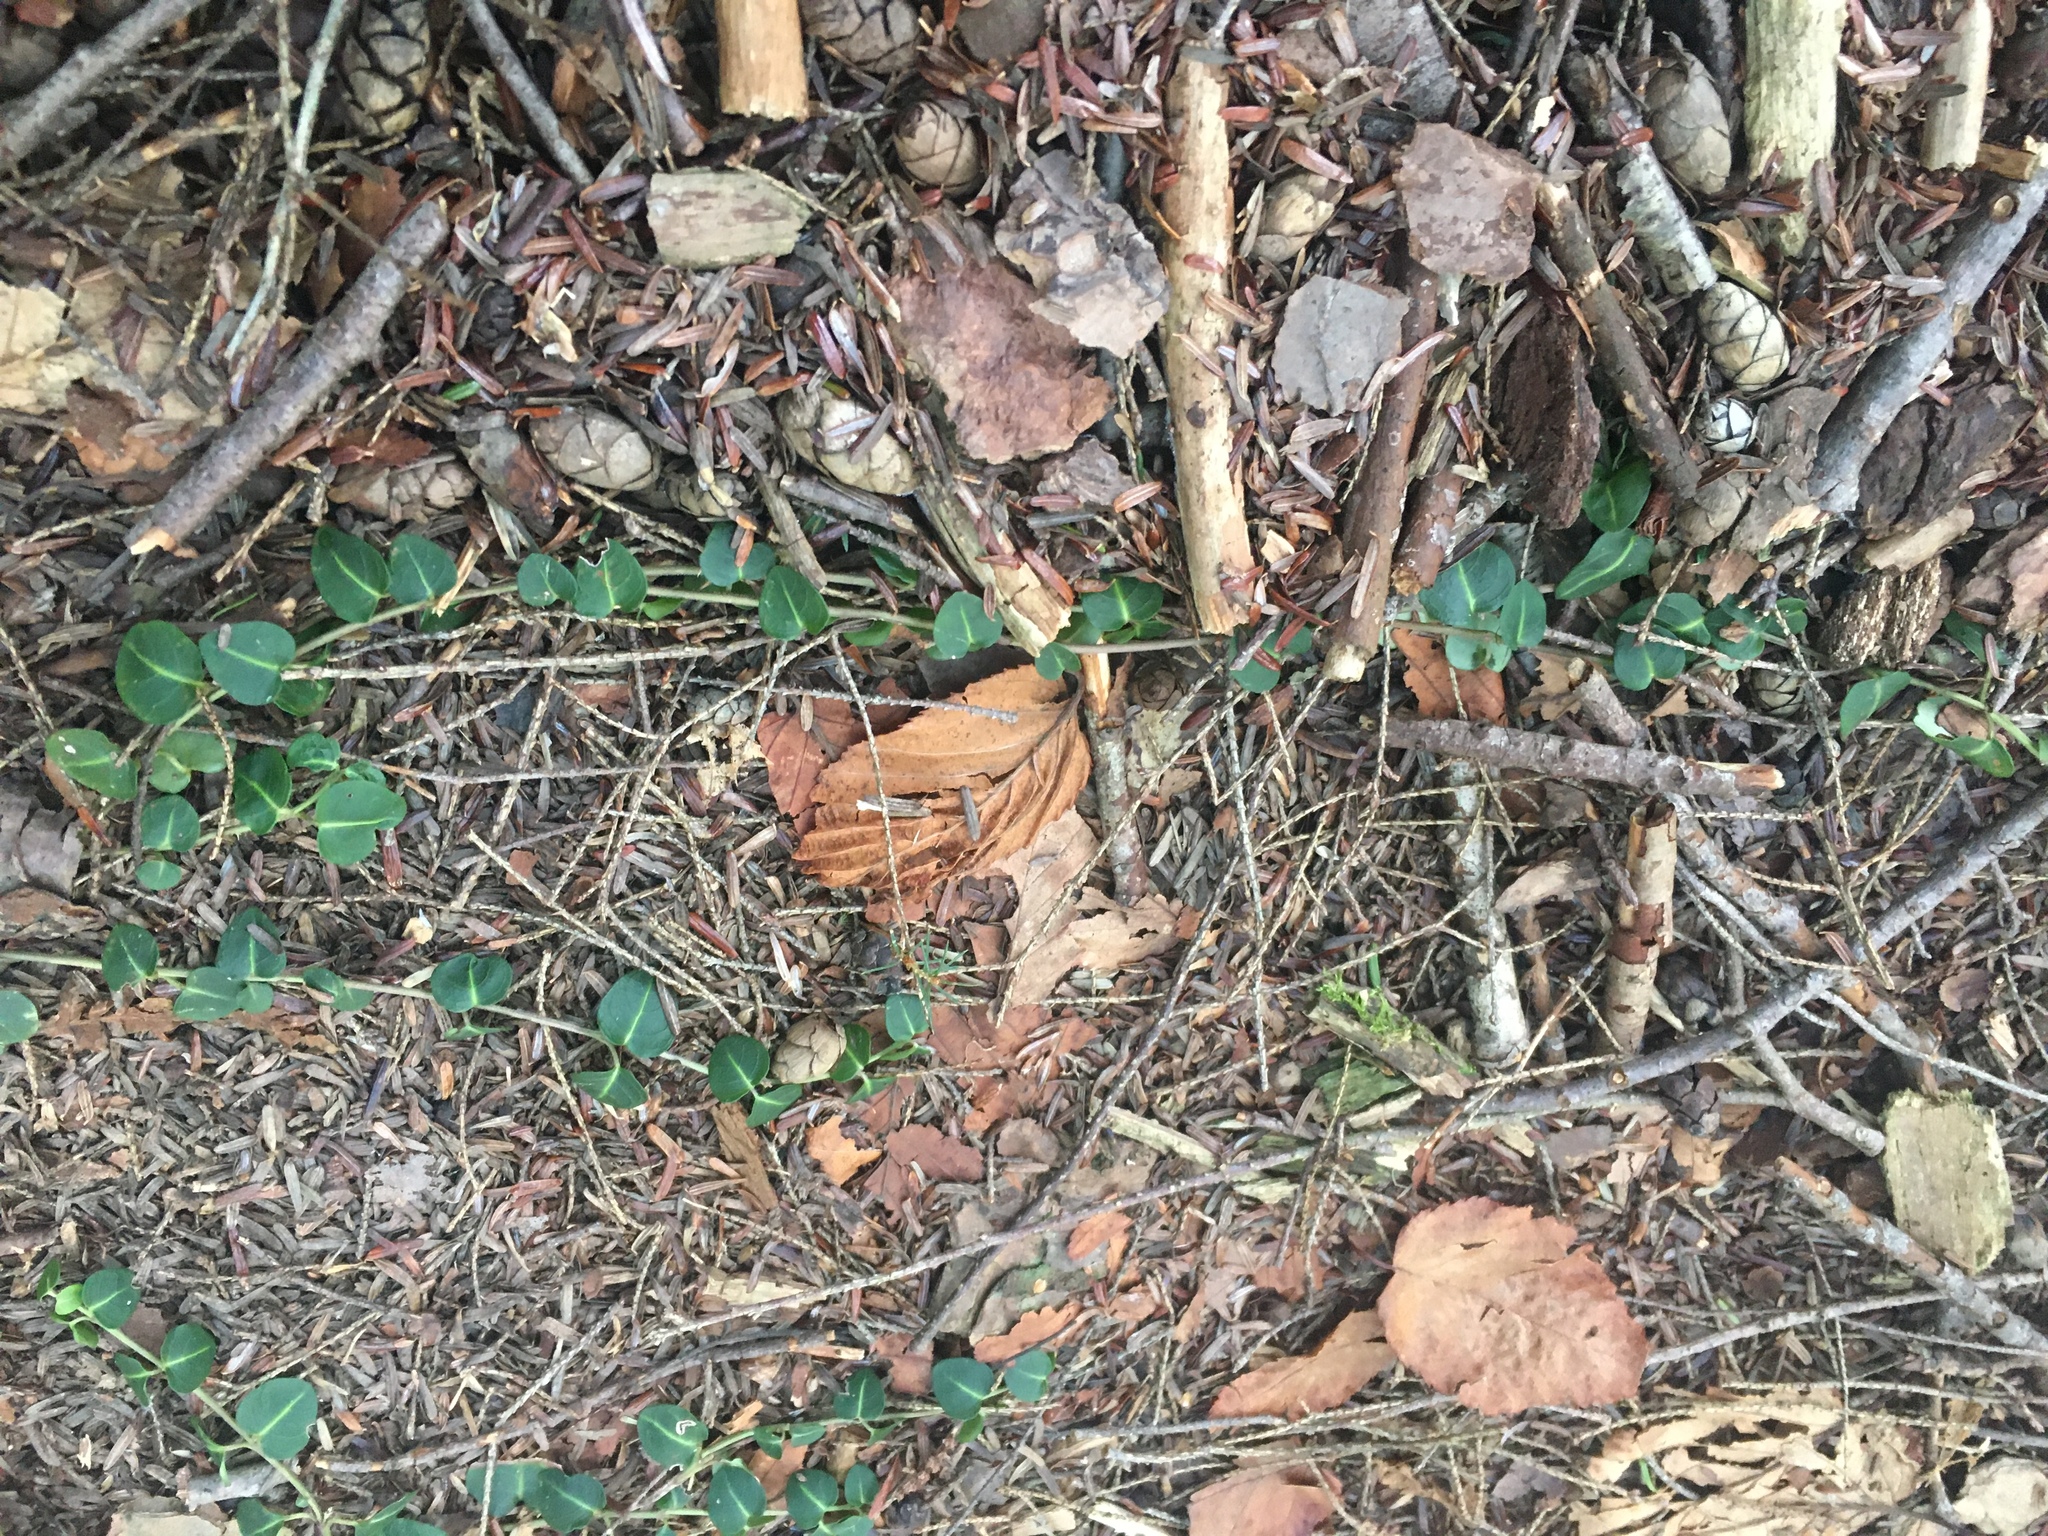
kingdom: Plantae
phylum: Tracheophyta
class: Magnoliopsida
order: Gentianales
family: Rubiaceae
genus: Mitchella
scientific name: Mitchella repens
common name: Partridge-berry
